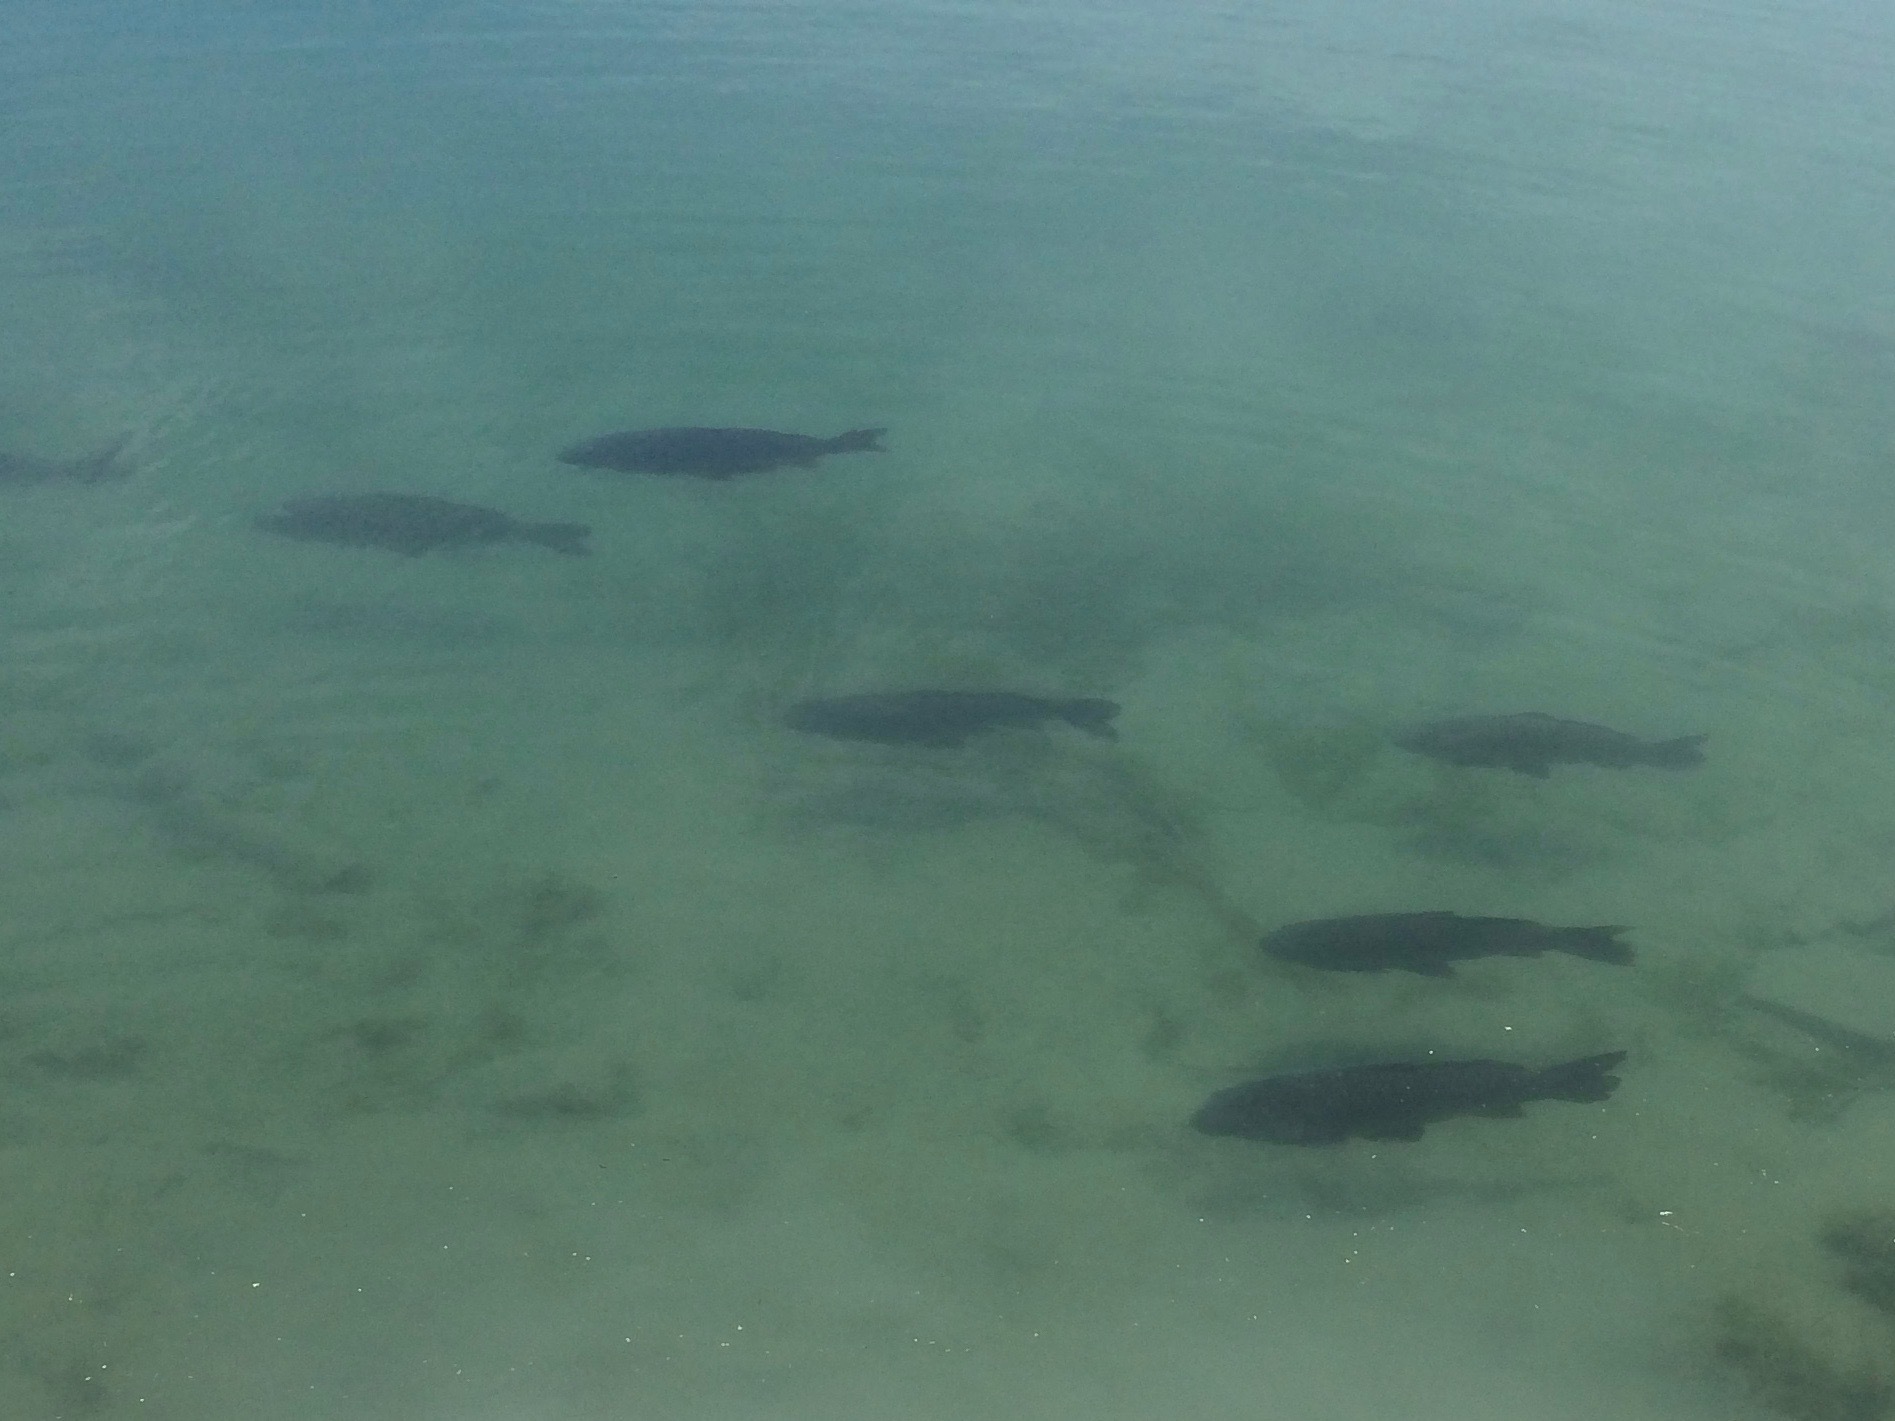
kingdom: Animalia
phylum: Chordata
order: Cypriniformes
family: Cyprinidae
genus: Cyprinus
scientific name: Cyprinus carpio
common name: Common carp
